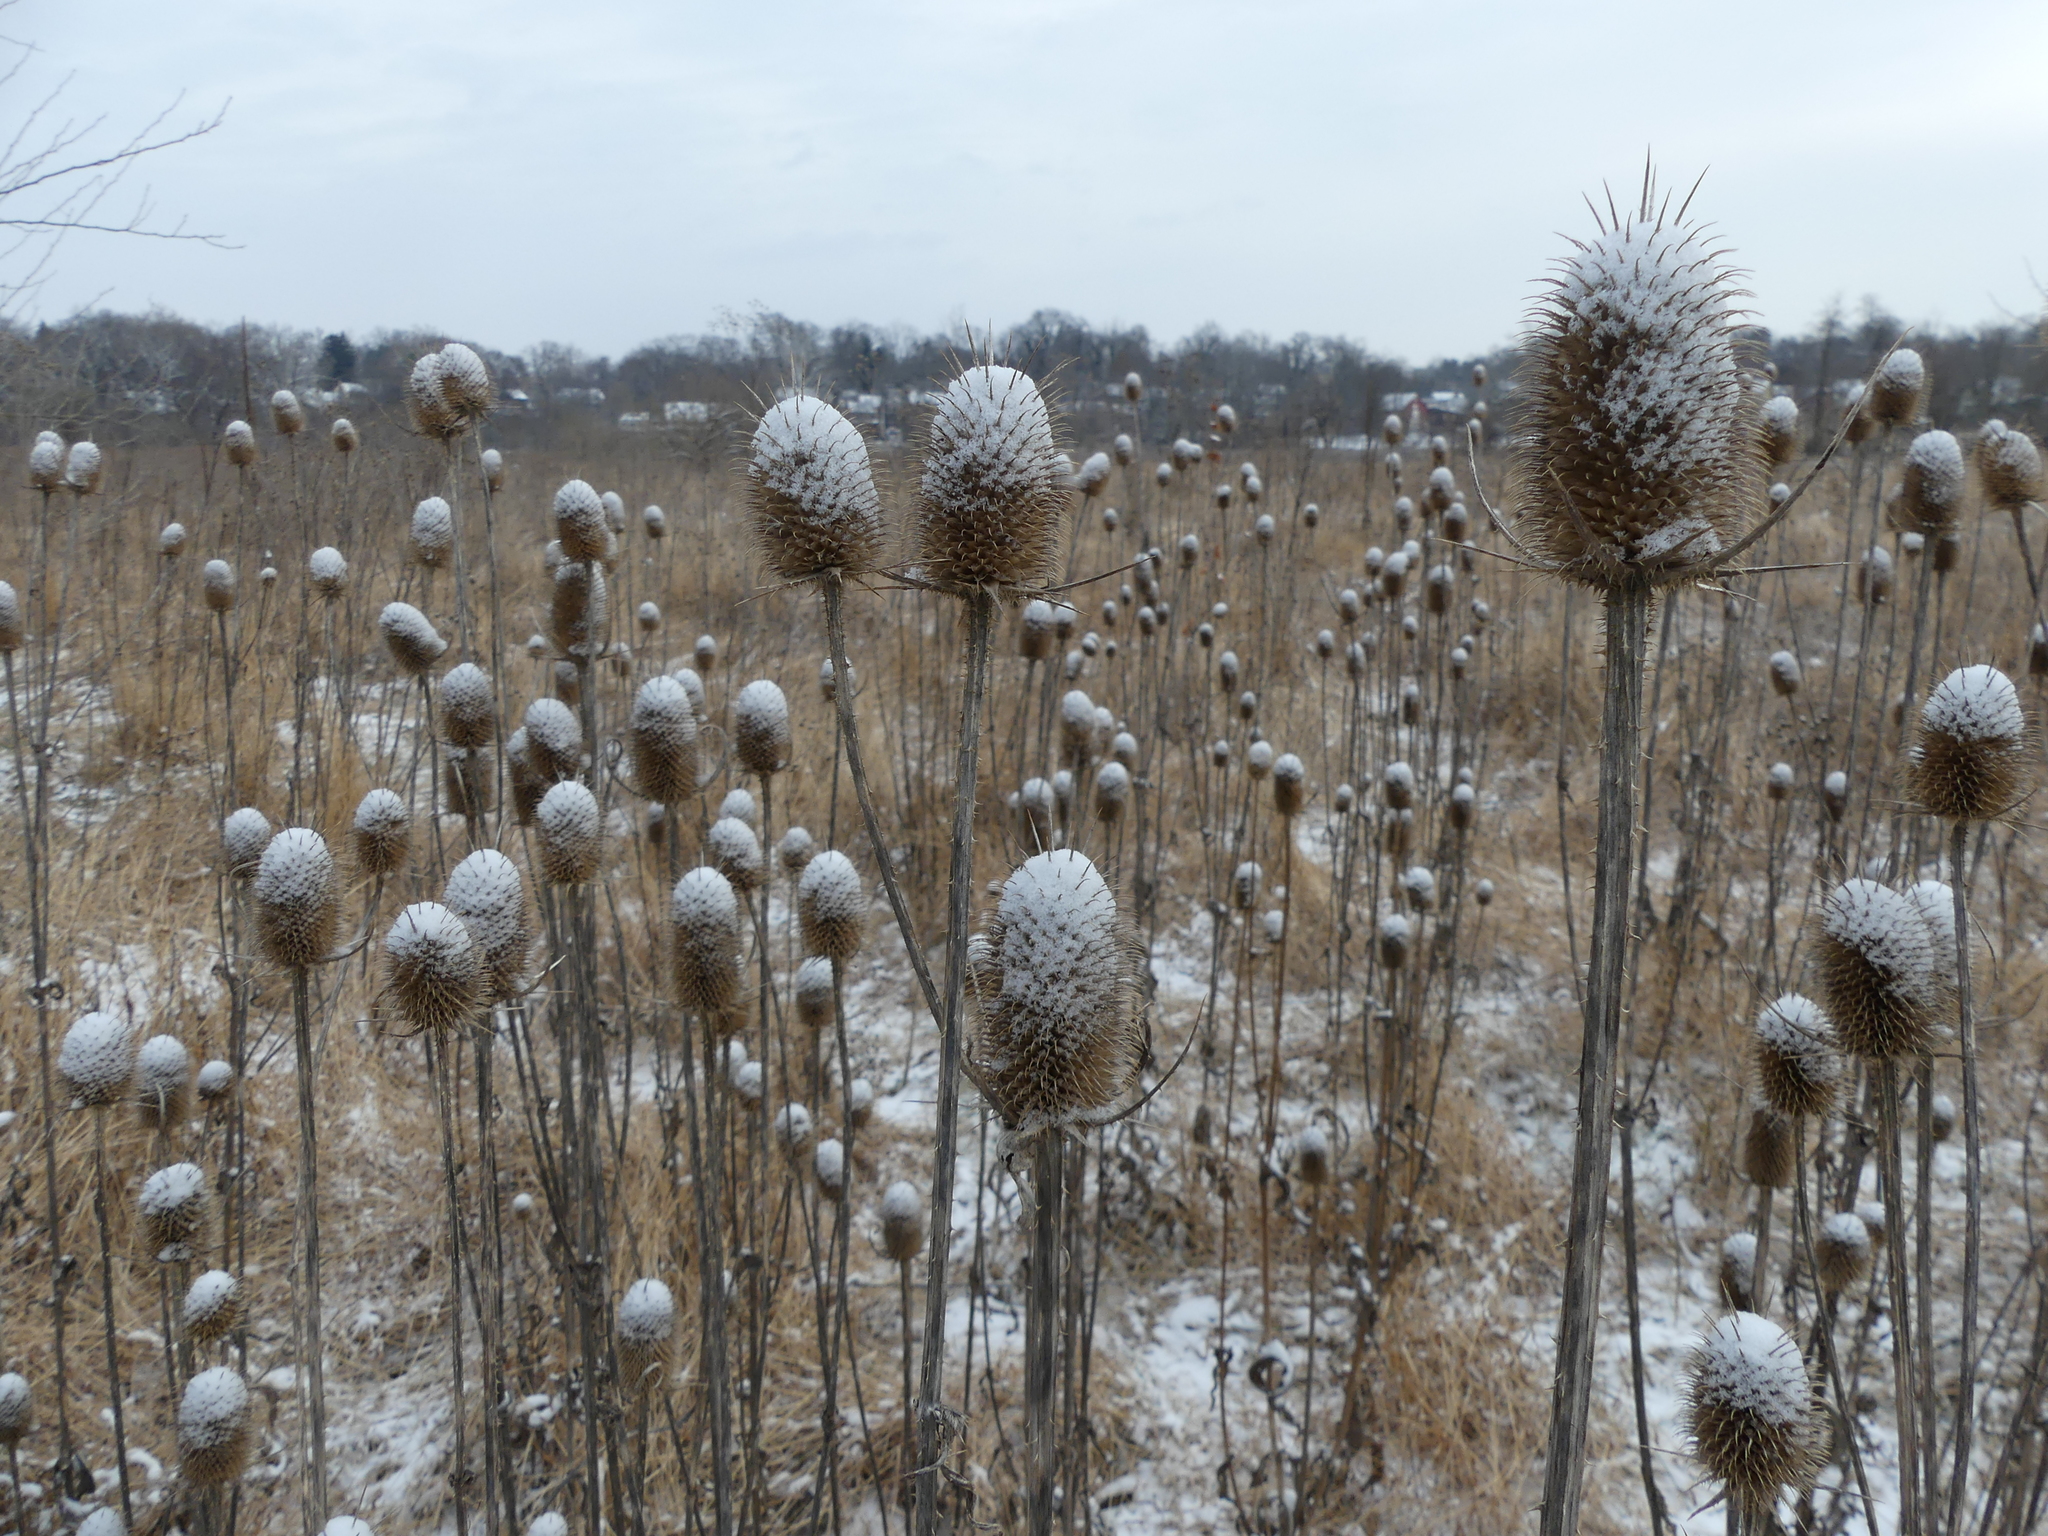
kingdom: Plantae
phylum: Tracheophyta
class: Magnoliopsida
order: Dipsacales
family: Caprifoliaceae
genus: Dipsacus
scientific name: Dipsacus laciniatus
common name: Cut-leaved teasel
